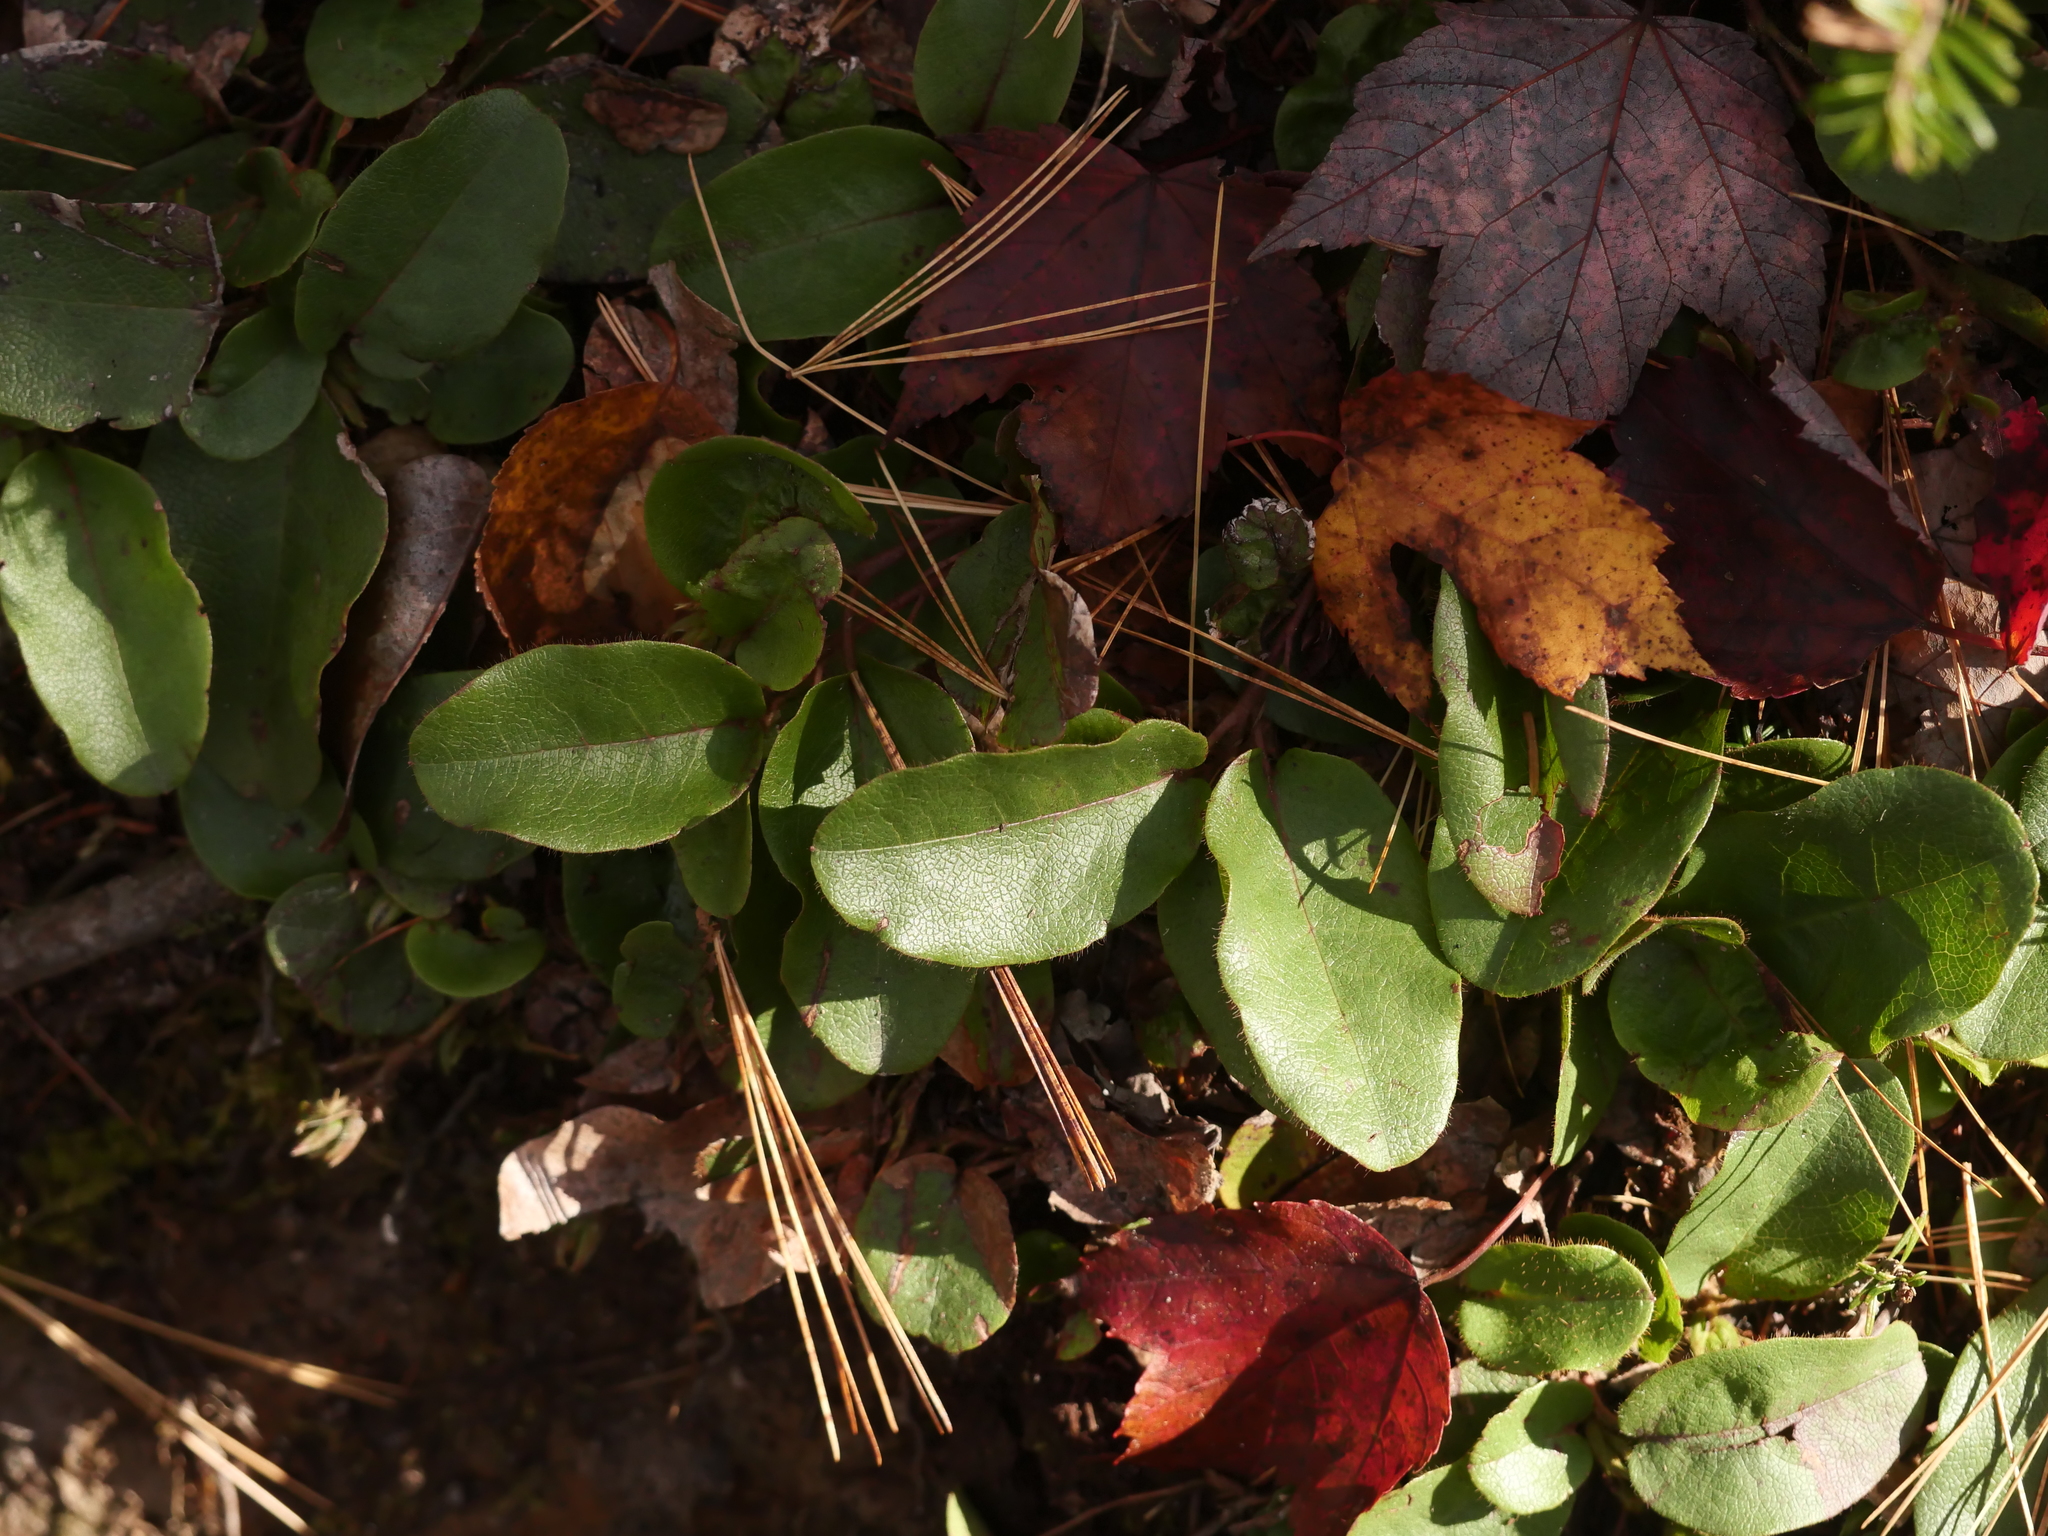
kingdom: Plantae
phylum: Tracheophyta
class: Magnoliopsida
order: Ericales
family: Ericaceae
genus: Epigaea
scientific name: Epigaea repens
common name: Gravelroot
